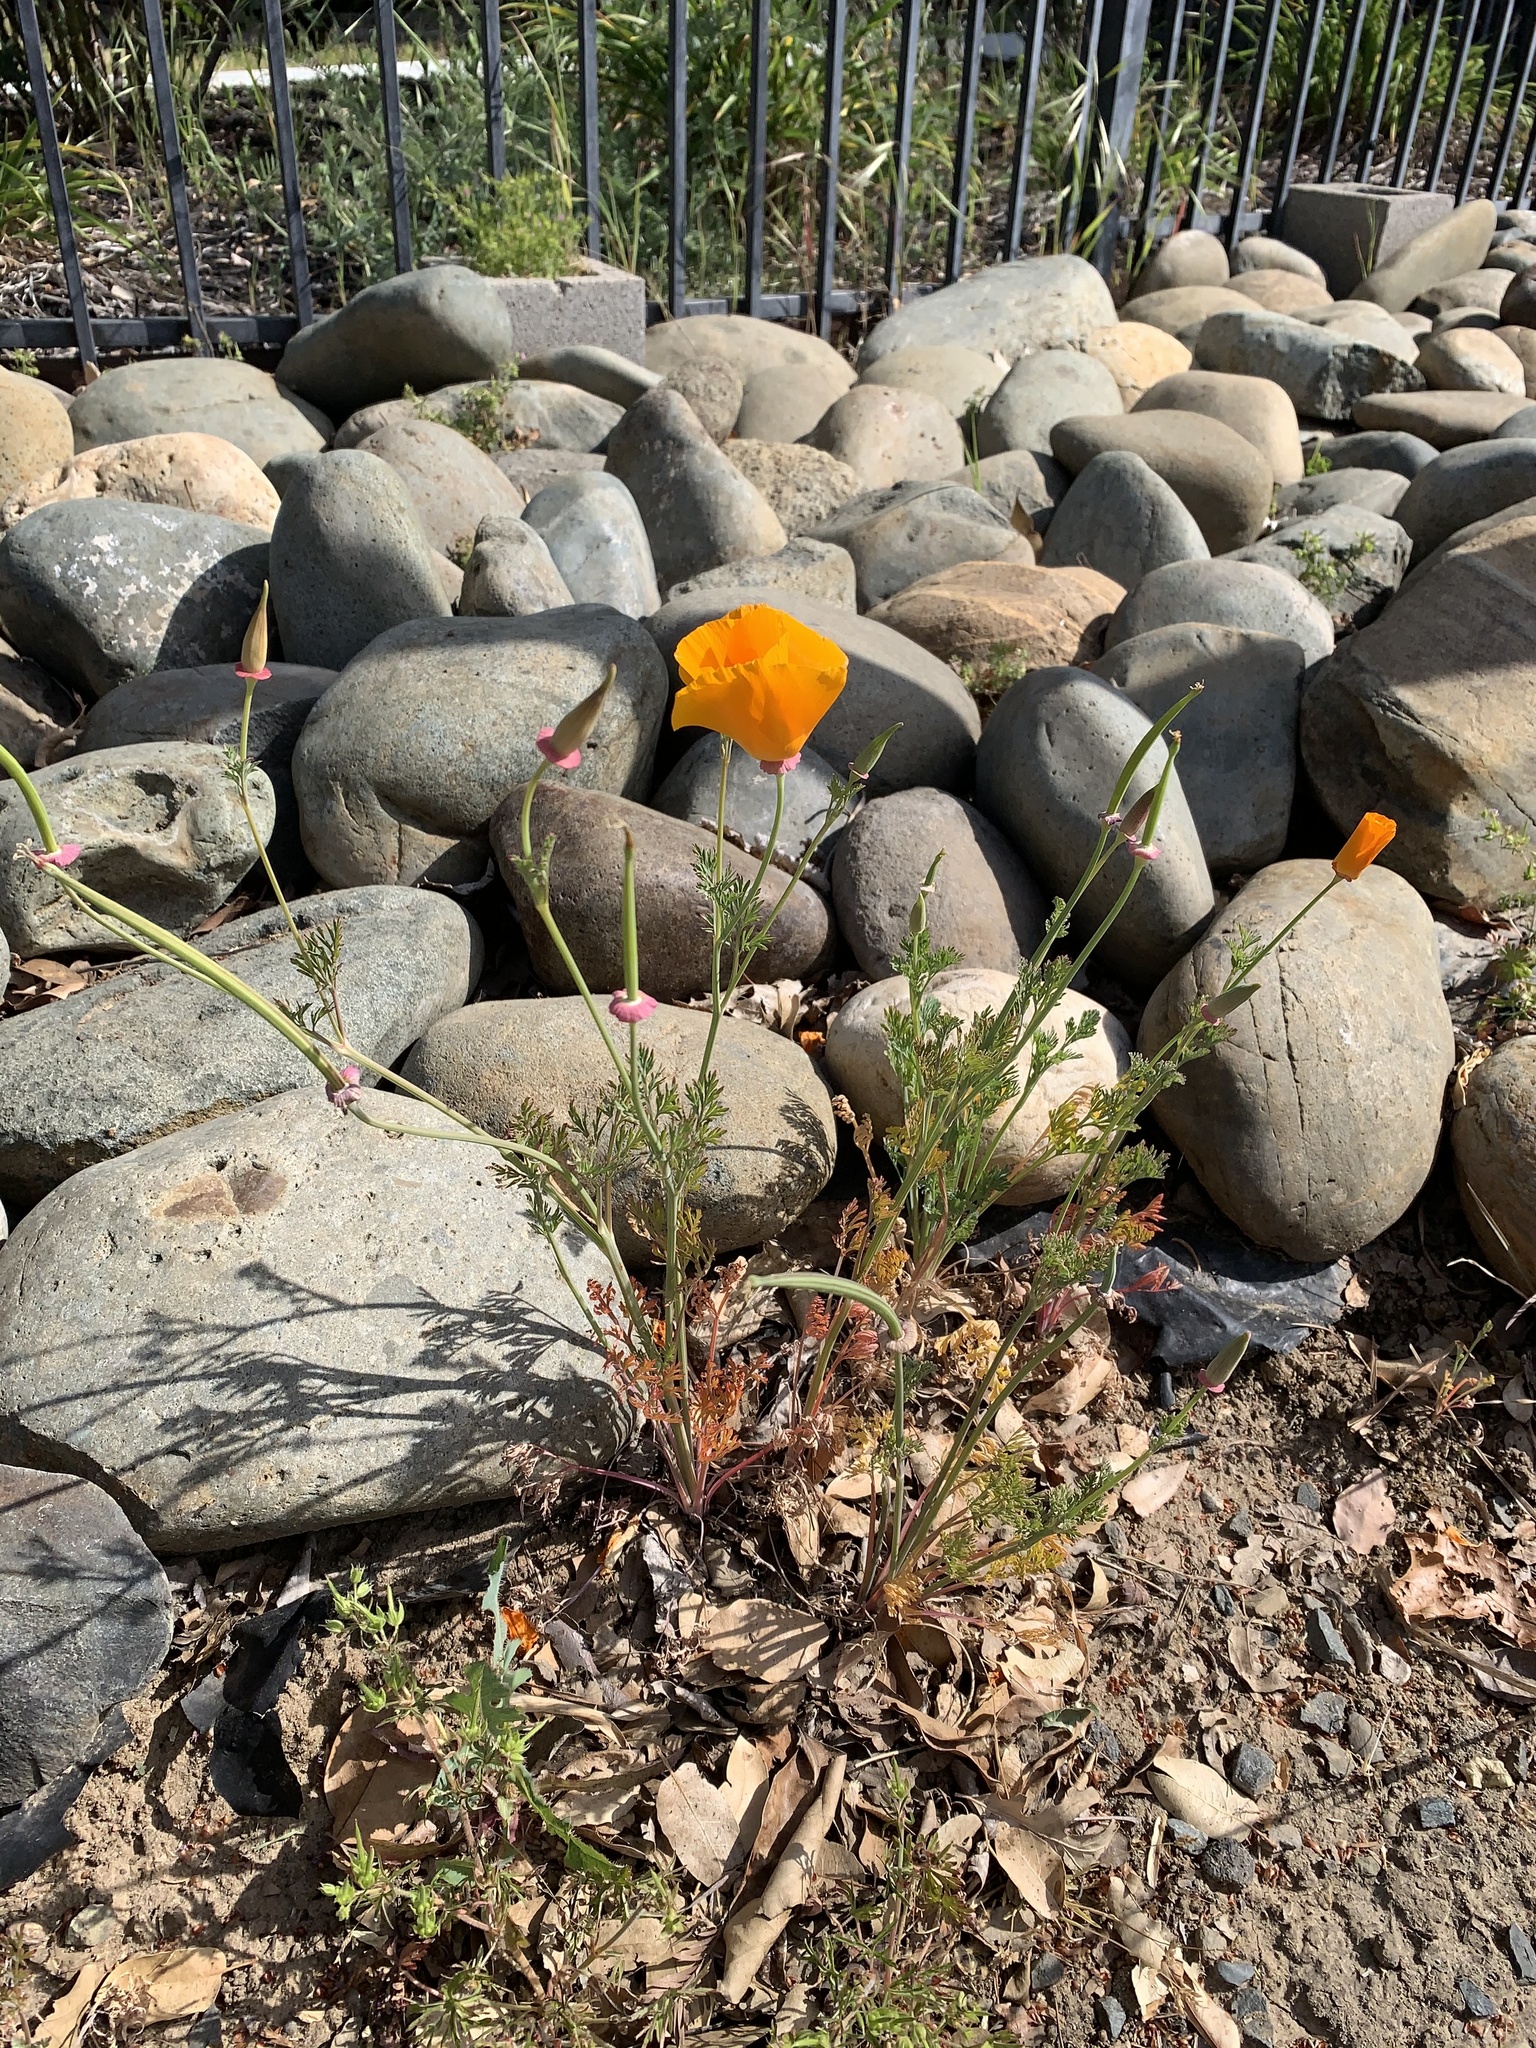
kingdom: Plantae
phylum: Tracheophyta
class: Magnoliopsida
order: Ranunculales
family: Papaveraceae
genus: Eschscholzia
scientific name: Eschscholzia californica
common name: California poppy
